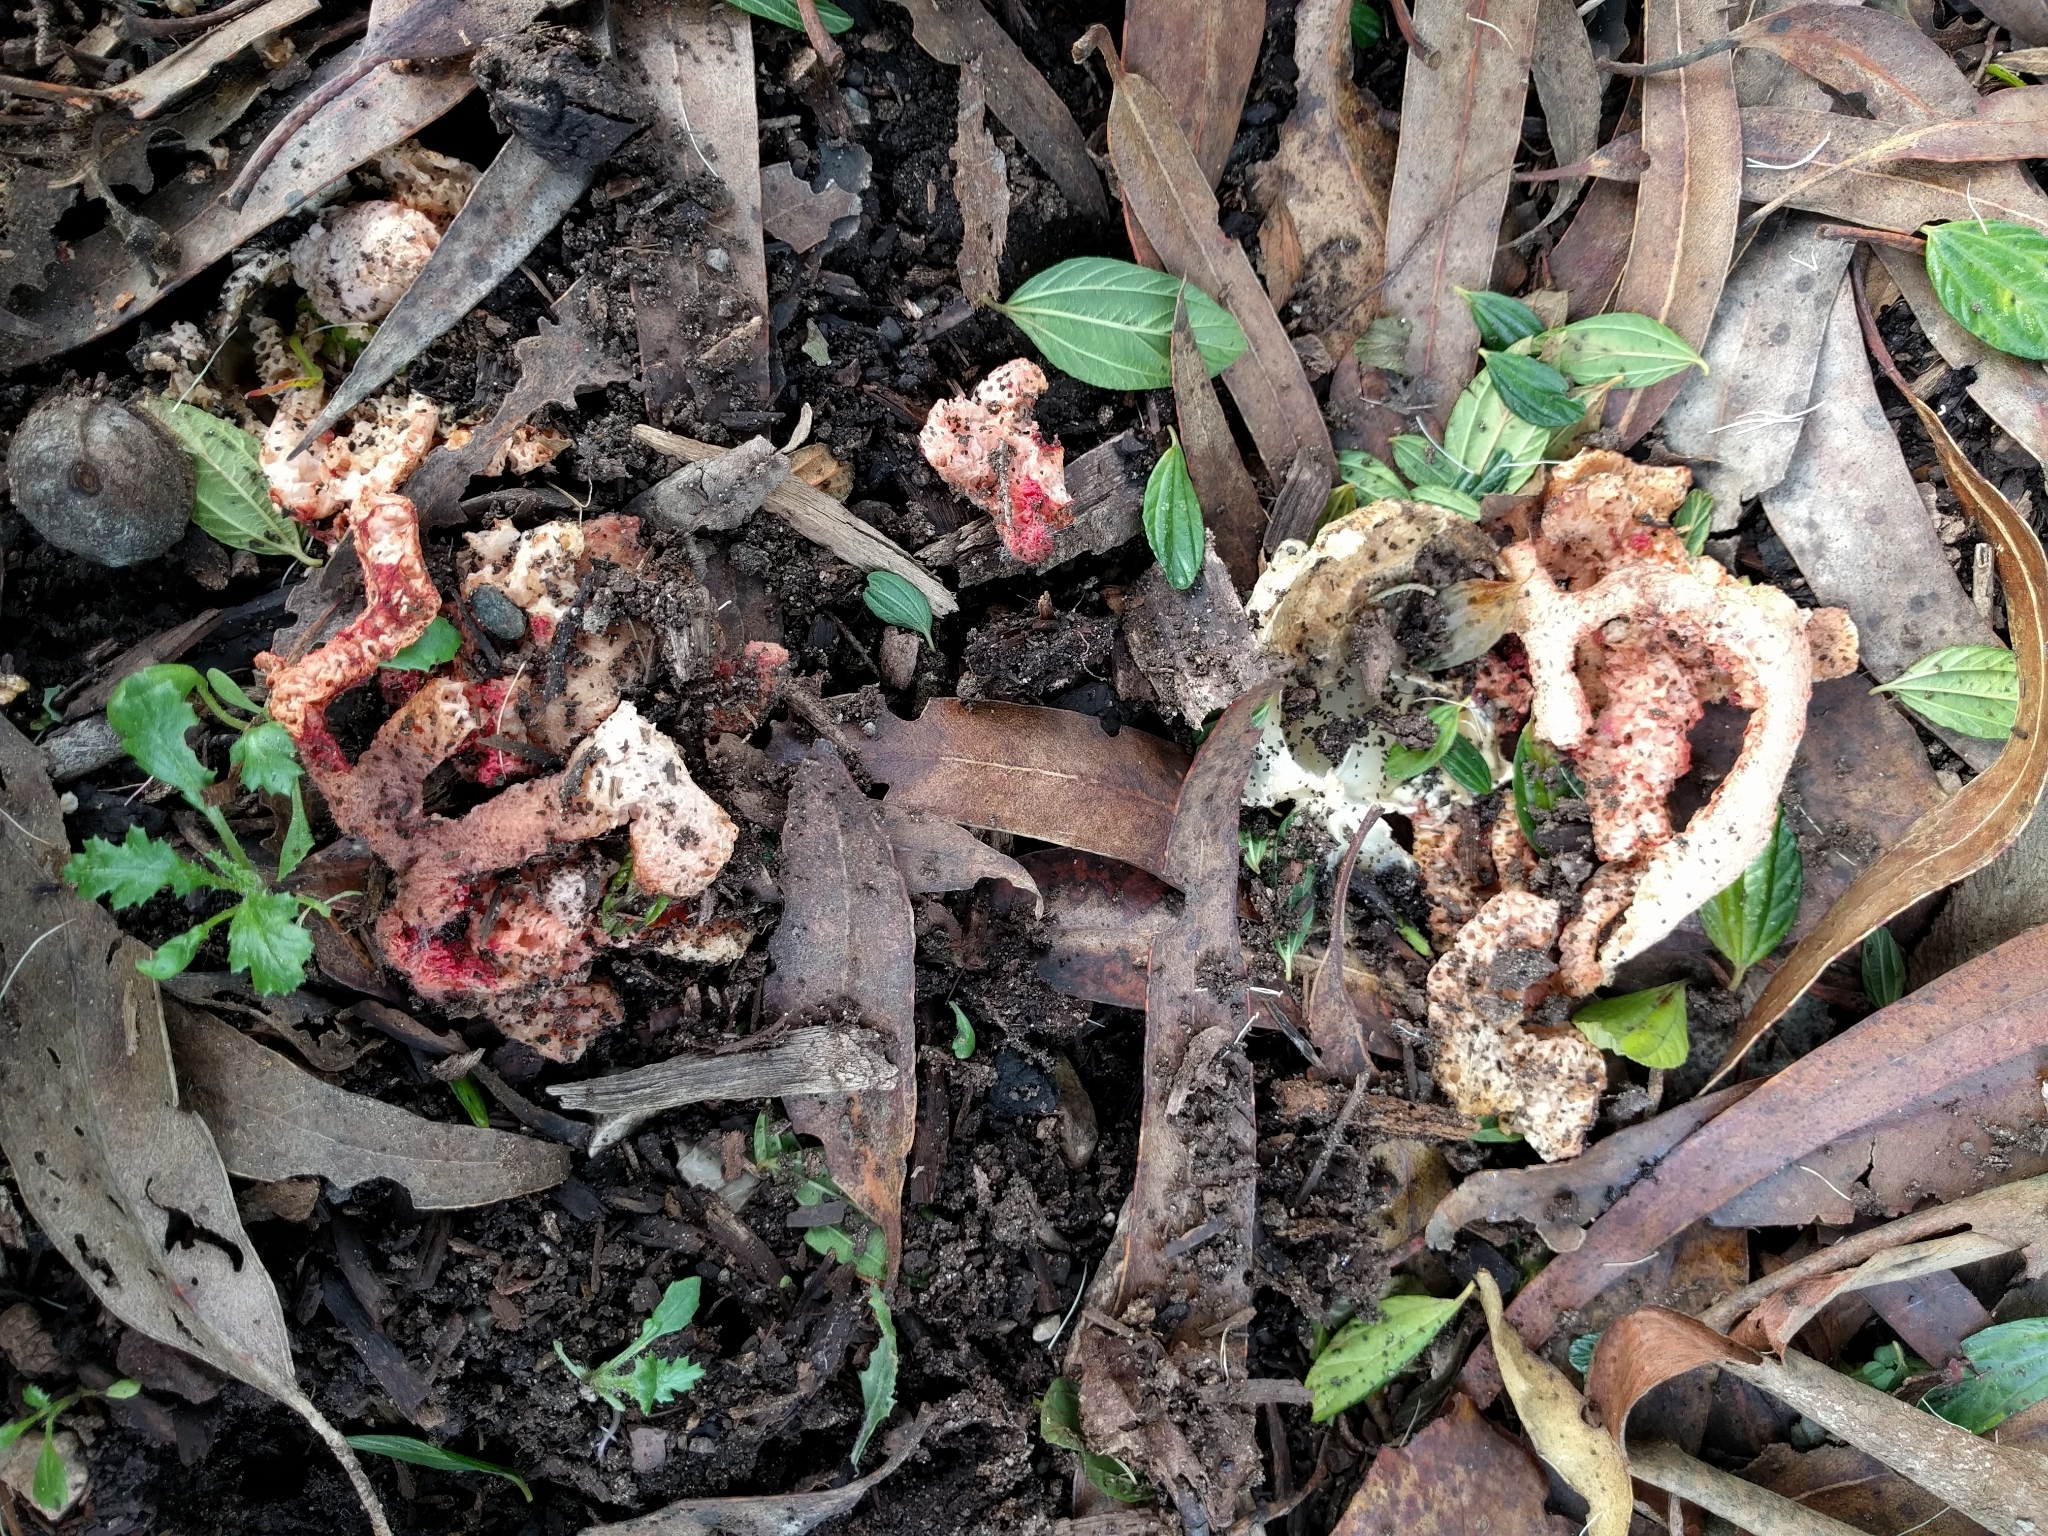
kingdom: Fungi
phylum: Basidiomycota
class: Agaricomycetes
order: Phallales
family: Phallaceae
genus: Clathrus
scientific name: Clathrus ruber
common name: Red cage
